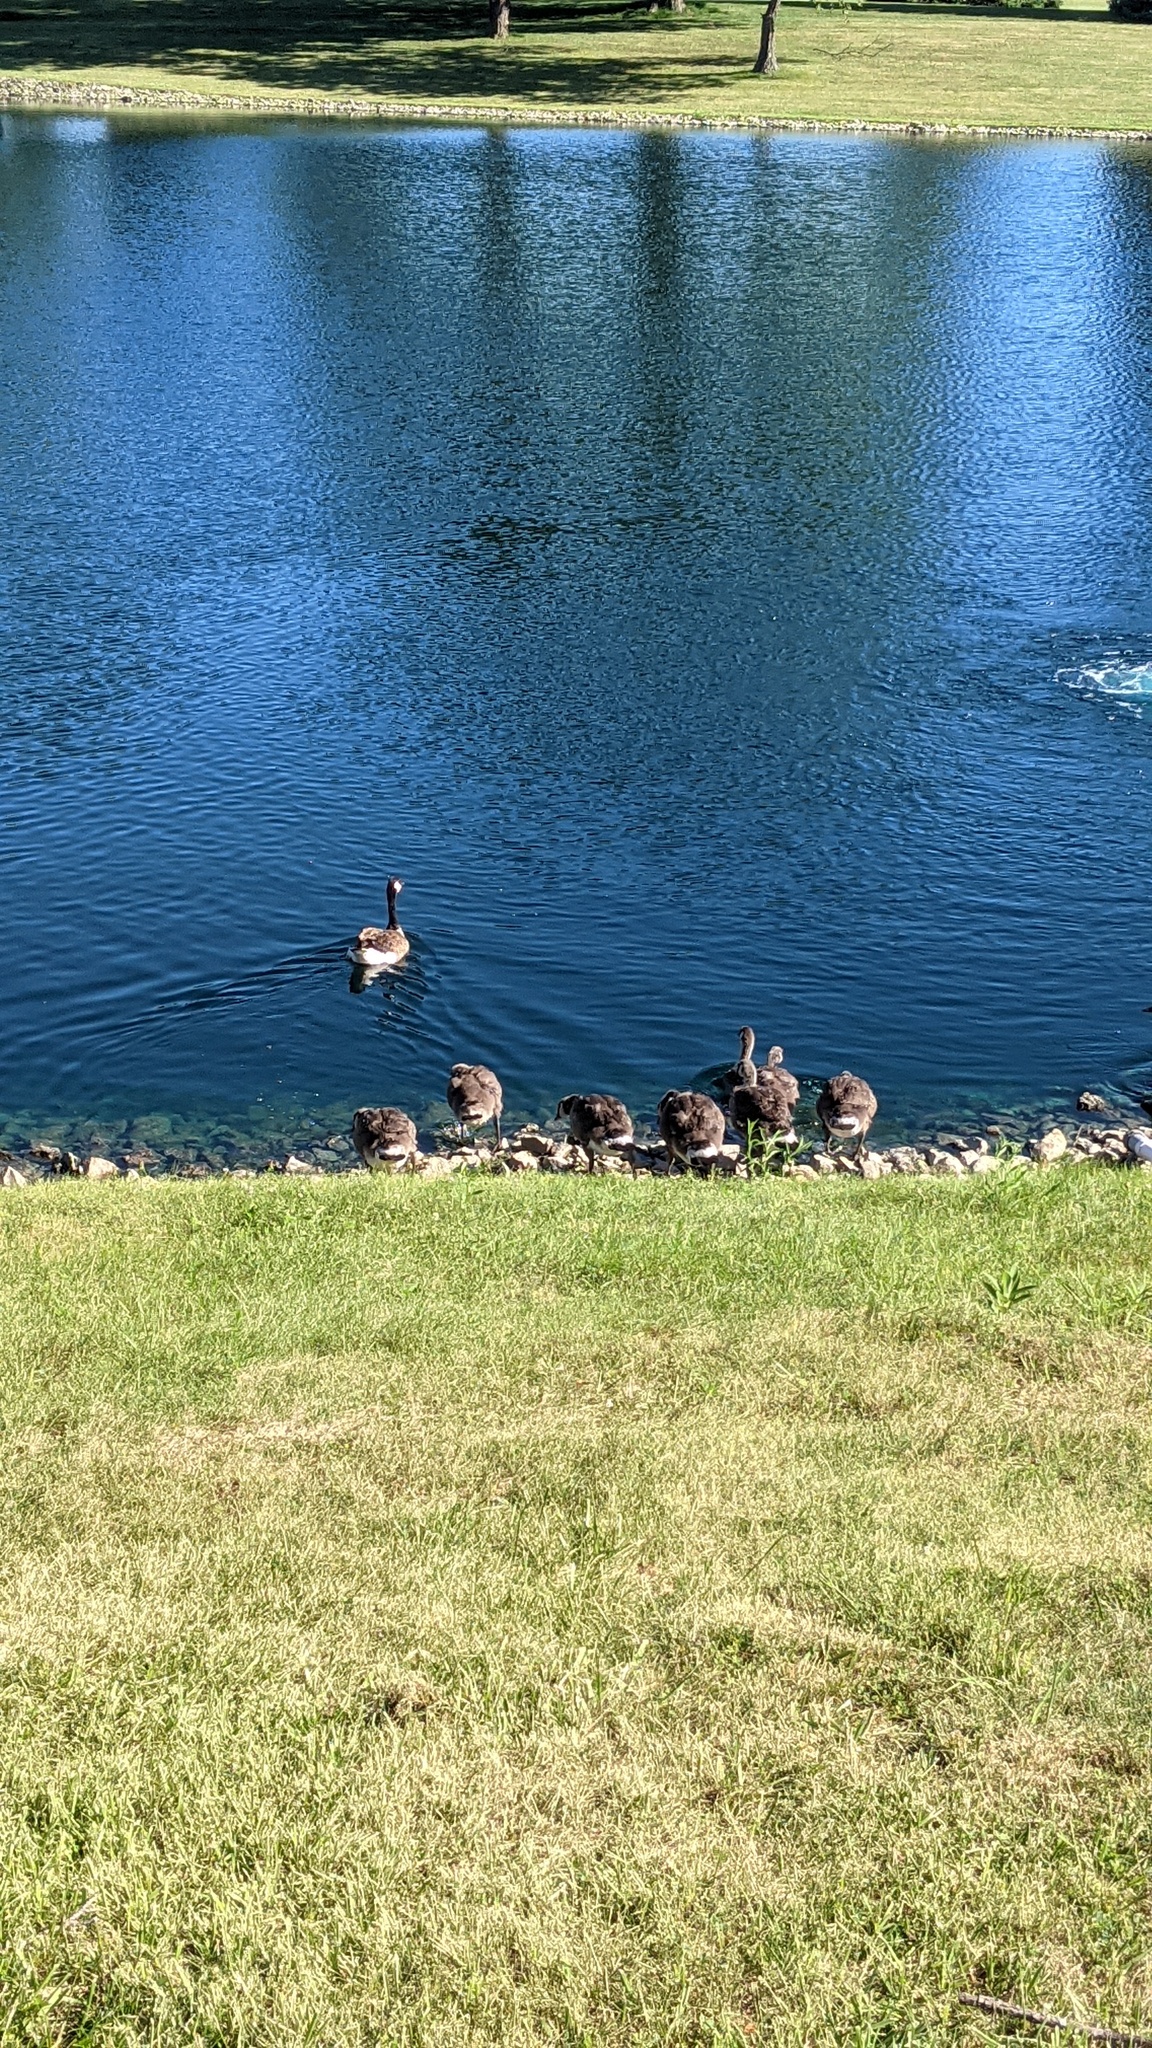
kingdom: Animalia
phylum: Chordata
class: Aves
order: Anseriformes
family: Anatidae
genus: Branta
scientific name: Branta canadensis
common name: Canada goose
